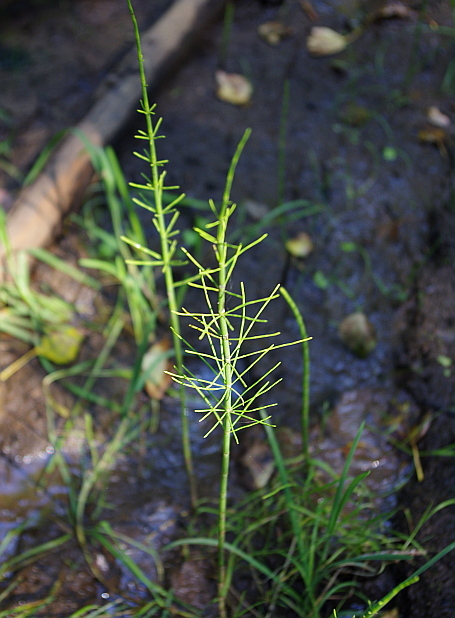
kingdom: Plantae
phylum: Tracheophyta
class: Polypodiopsida
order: Equisetales
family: Equisetaceae
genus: Equisetum
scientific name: Equisetum fluviatile
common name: Water horsetail
